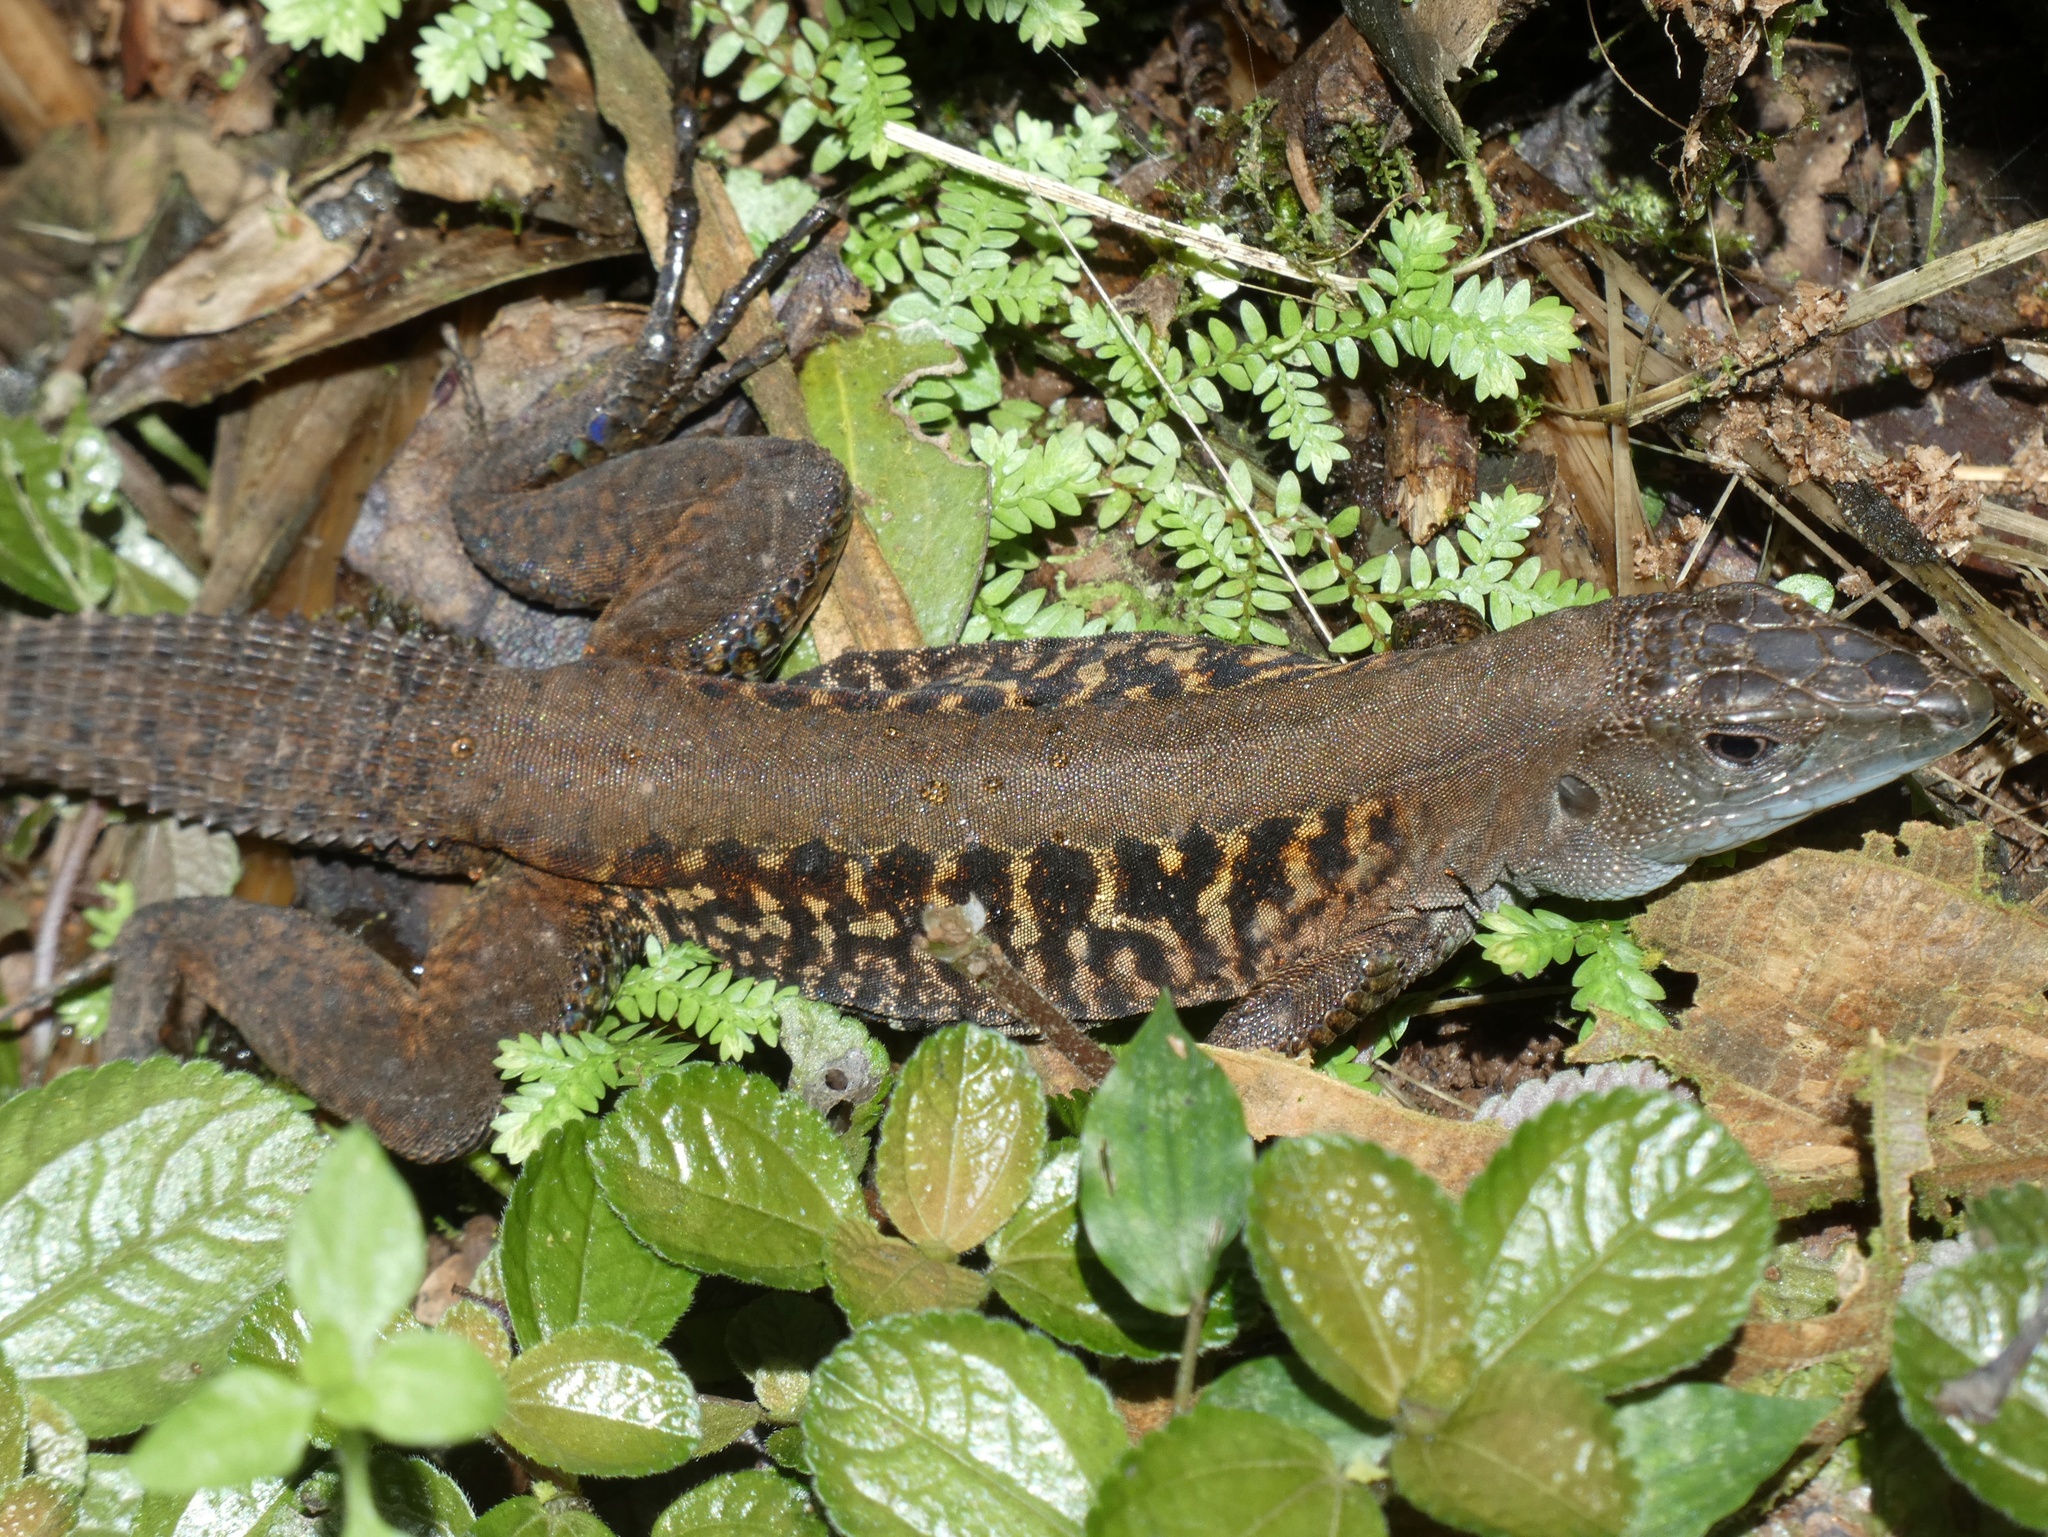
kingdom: Animalia
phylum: Chordata
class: Squamata
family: Teiidae
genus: Holcosus
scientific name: Holcosus festivus
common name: Middle american ameiva
